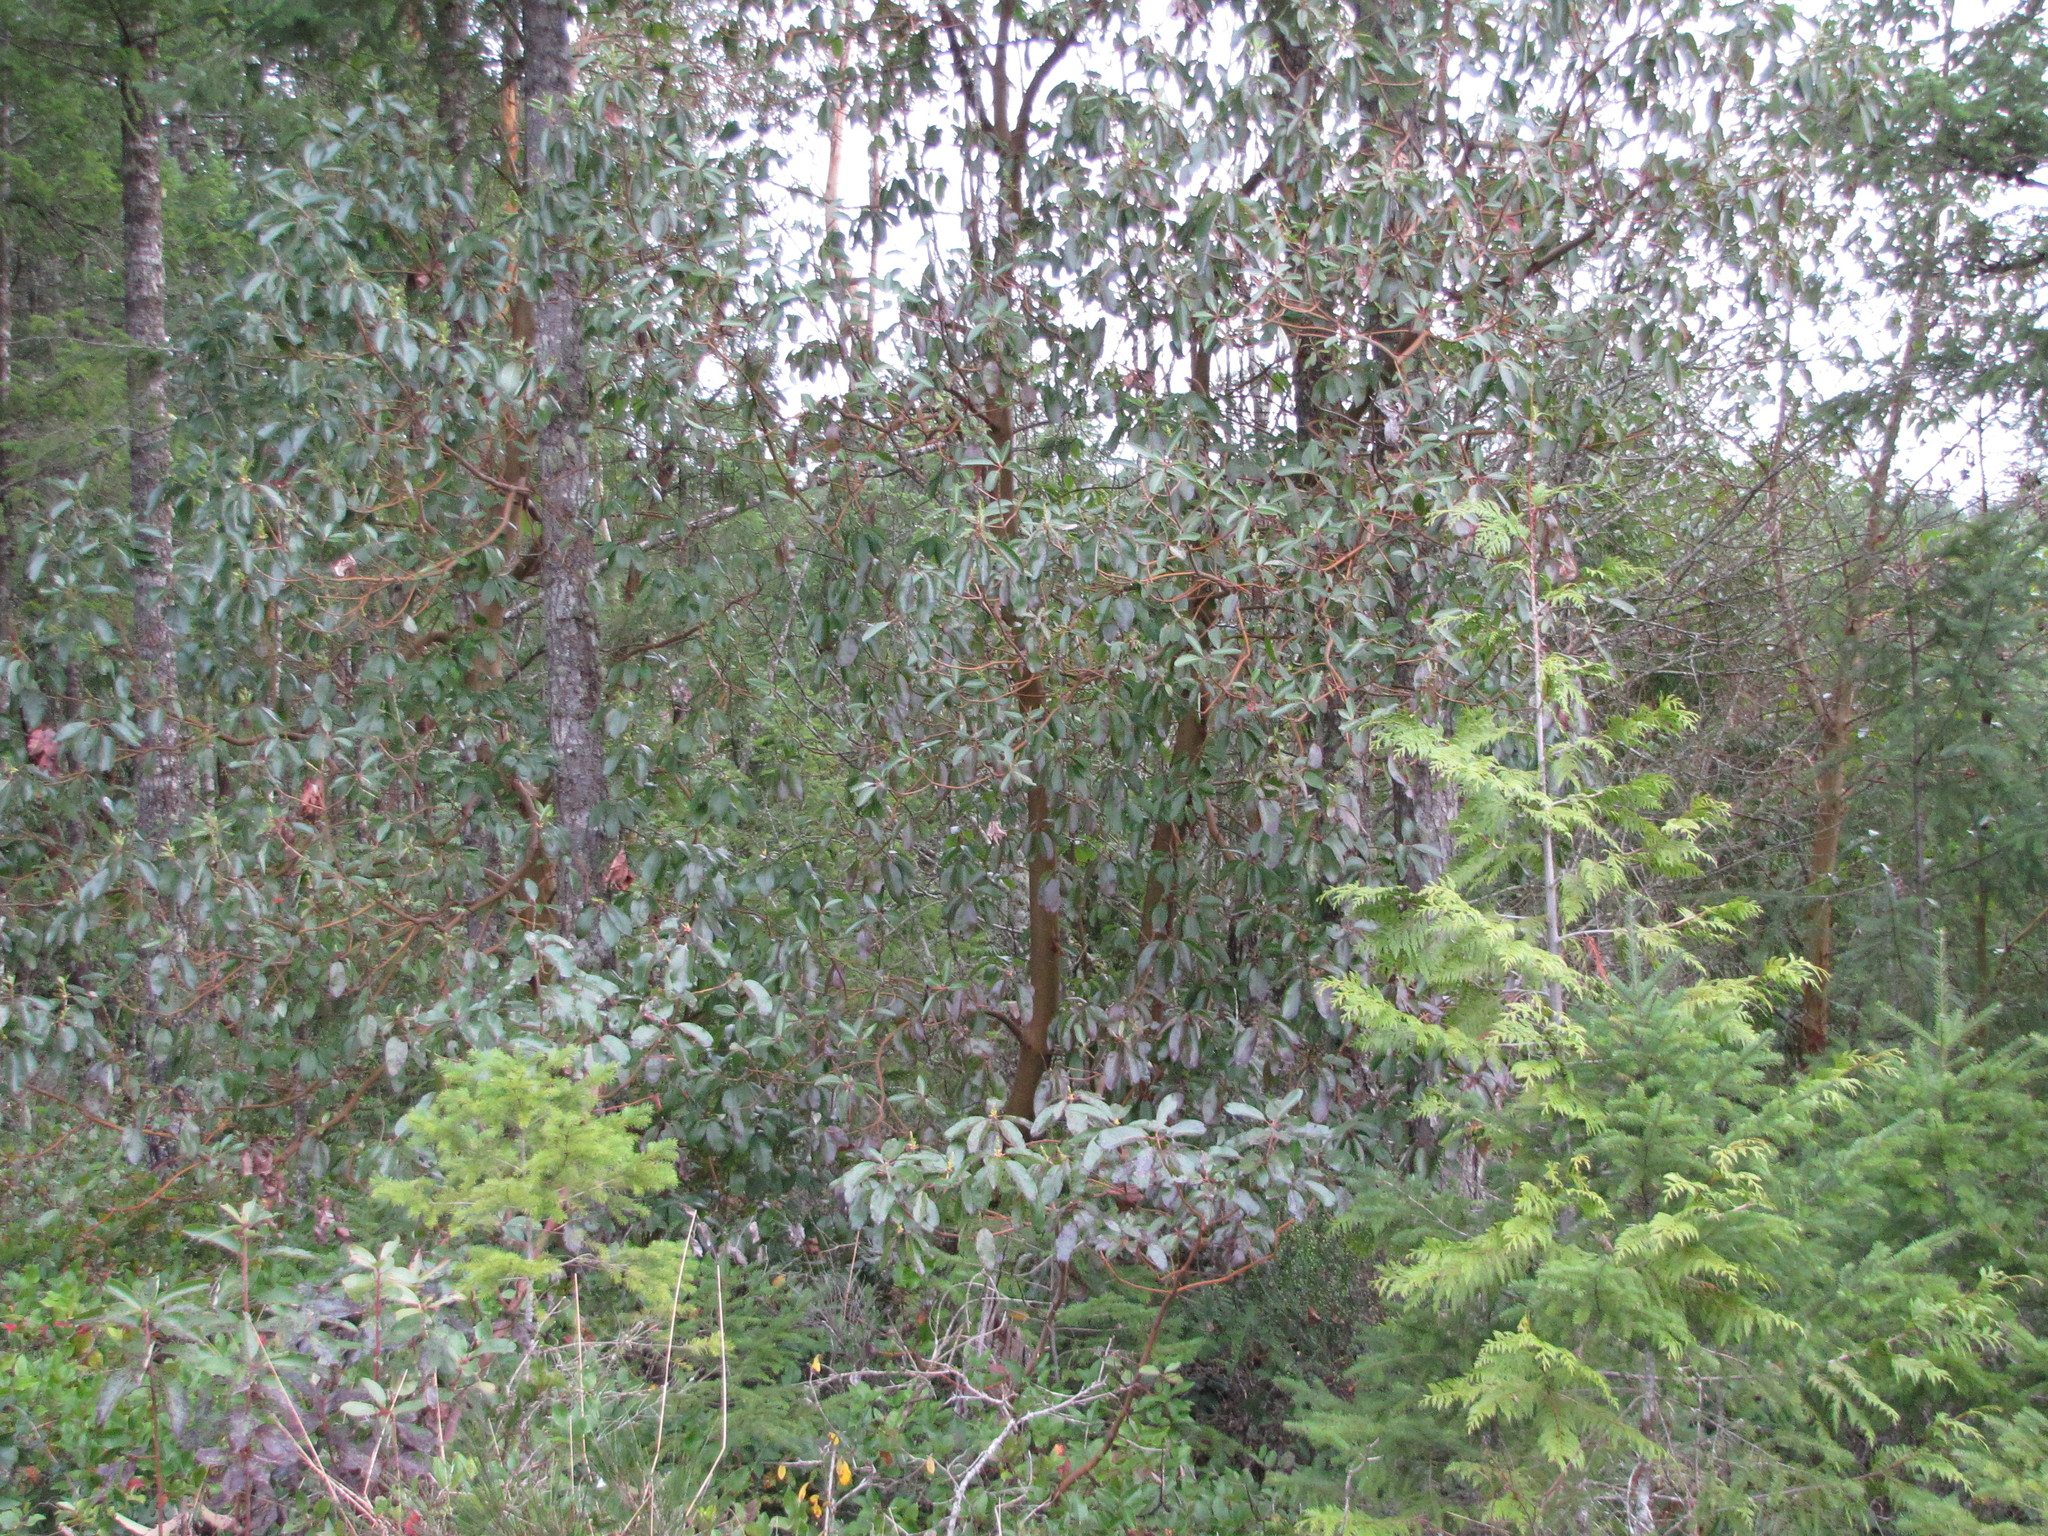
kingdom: Plantae
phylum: Tracheophyta
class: Magnoliopsida
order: Ericales
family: Ericaceae
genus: Arbutus
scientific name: Arbutus menziesii
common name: Pacific madrone
